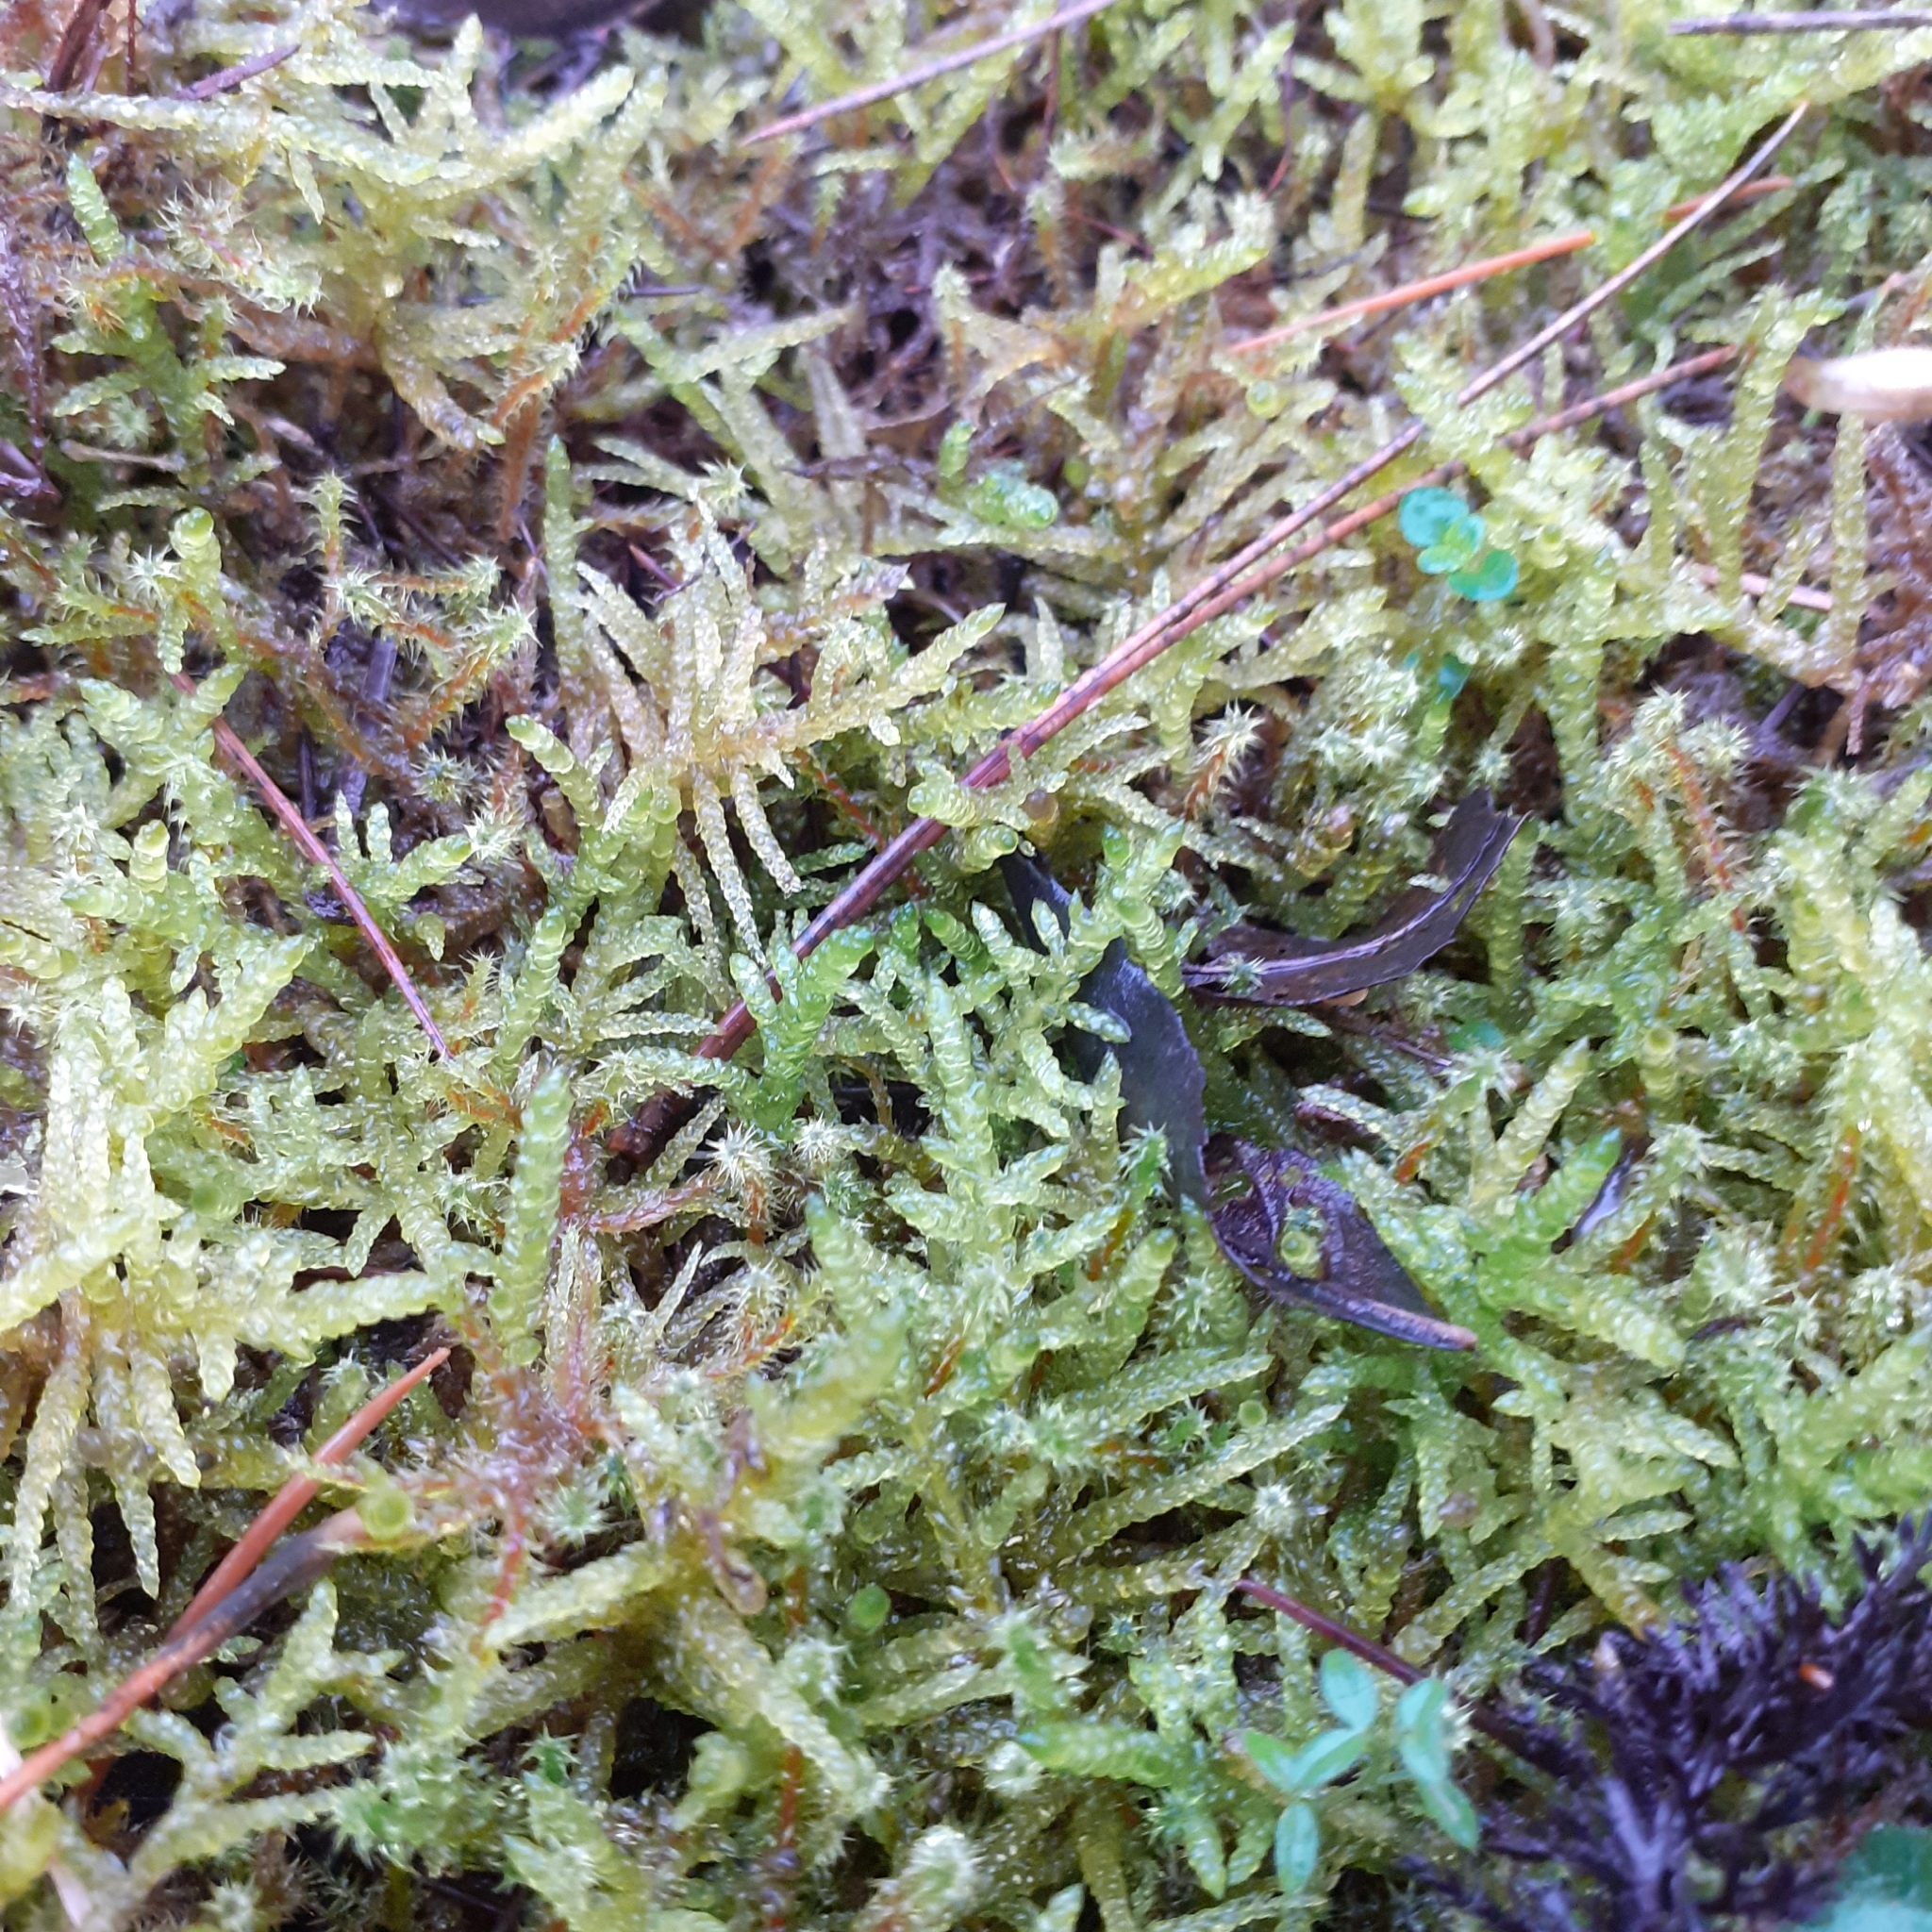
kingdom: Plantae
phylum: Bryophyta
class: Bryopsida
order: Hypnales
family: Brachytheciaceae
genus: Pseudoscleropodium
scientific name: Pseudoscleropodium purum
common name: Neat feather-moss
